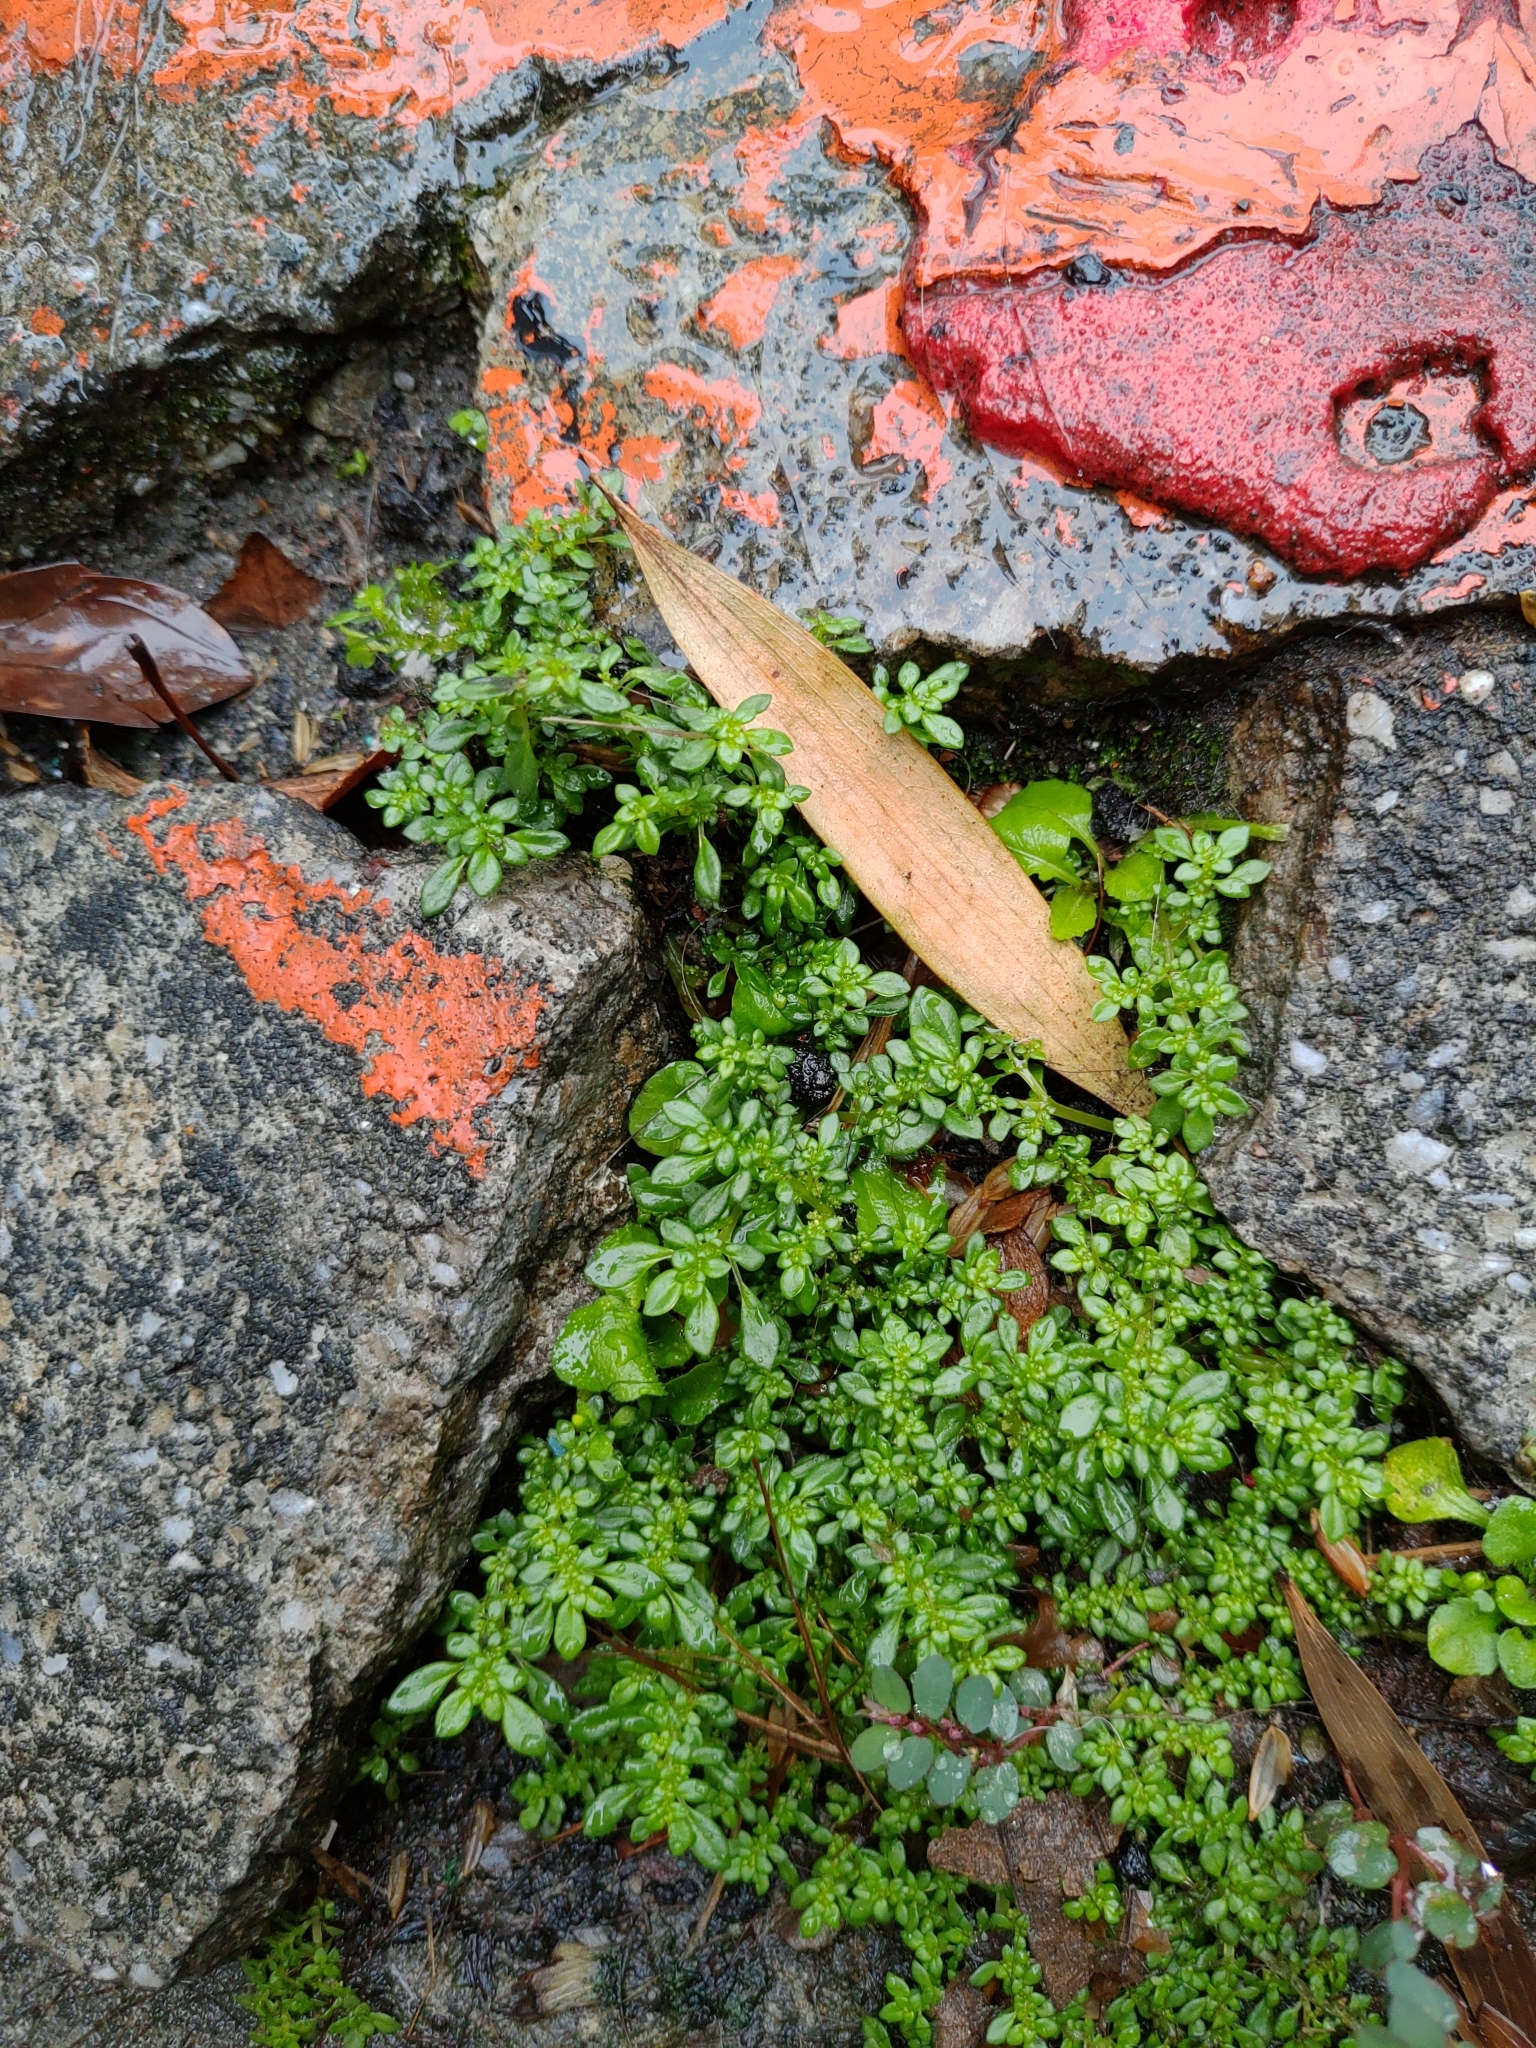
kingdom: Plantae
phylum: Tracheophyta
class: Magnoliopsida
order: Rosales
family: Urticaceae
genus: Pilea
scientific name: Pilea microphylla
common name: Artillery-plant
